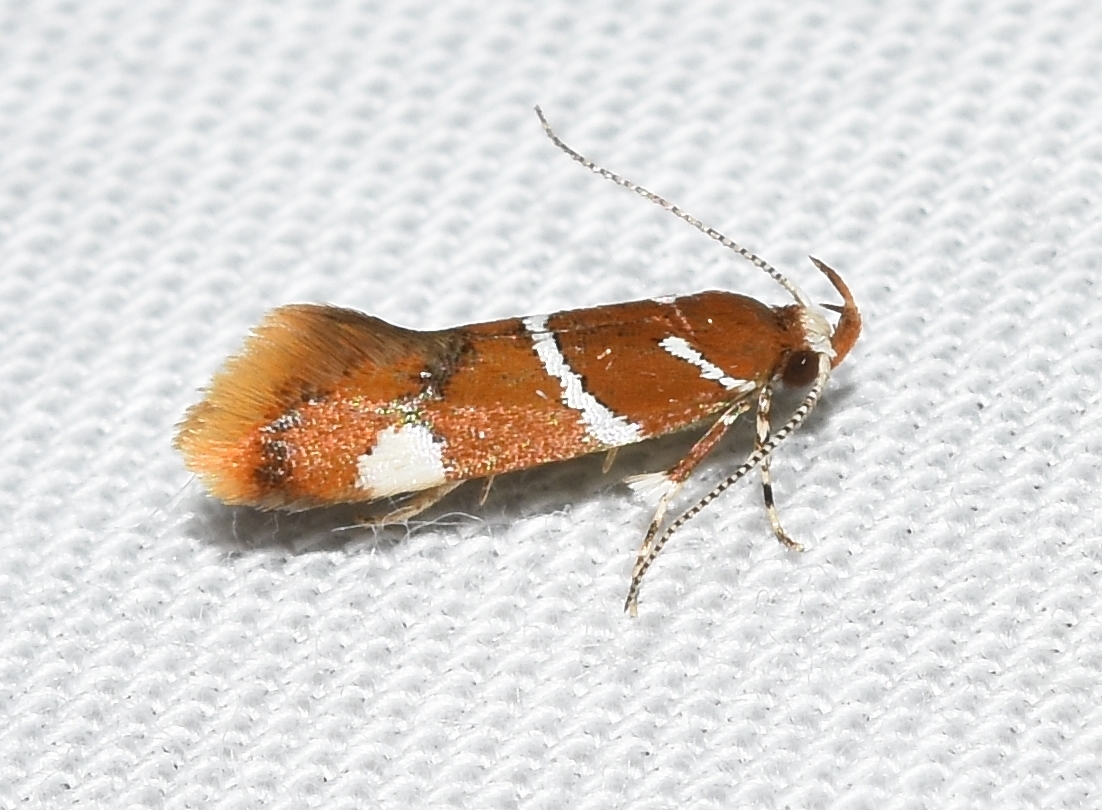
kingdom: Animalia
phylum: Arthropoda
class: Insecta
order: Lepidoptera
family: Oecophoridae
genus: Promalactis
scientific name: Promalactis suzukiella
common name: Moth
